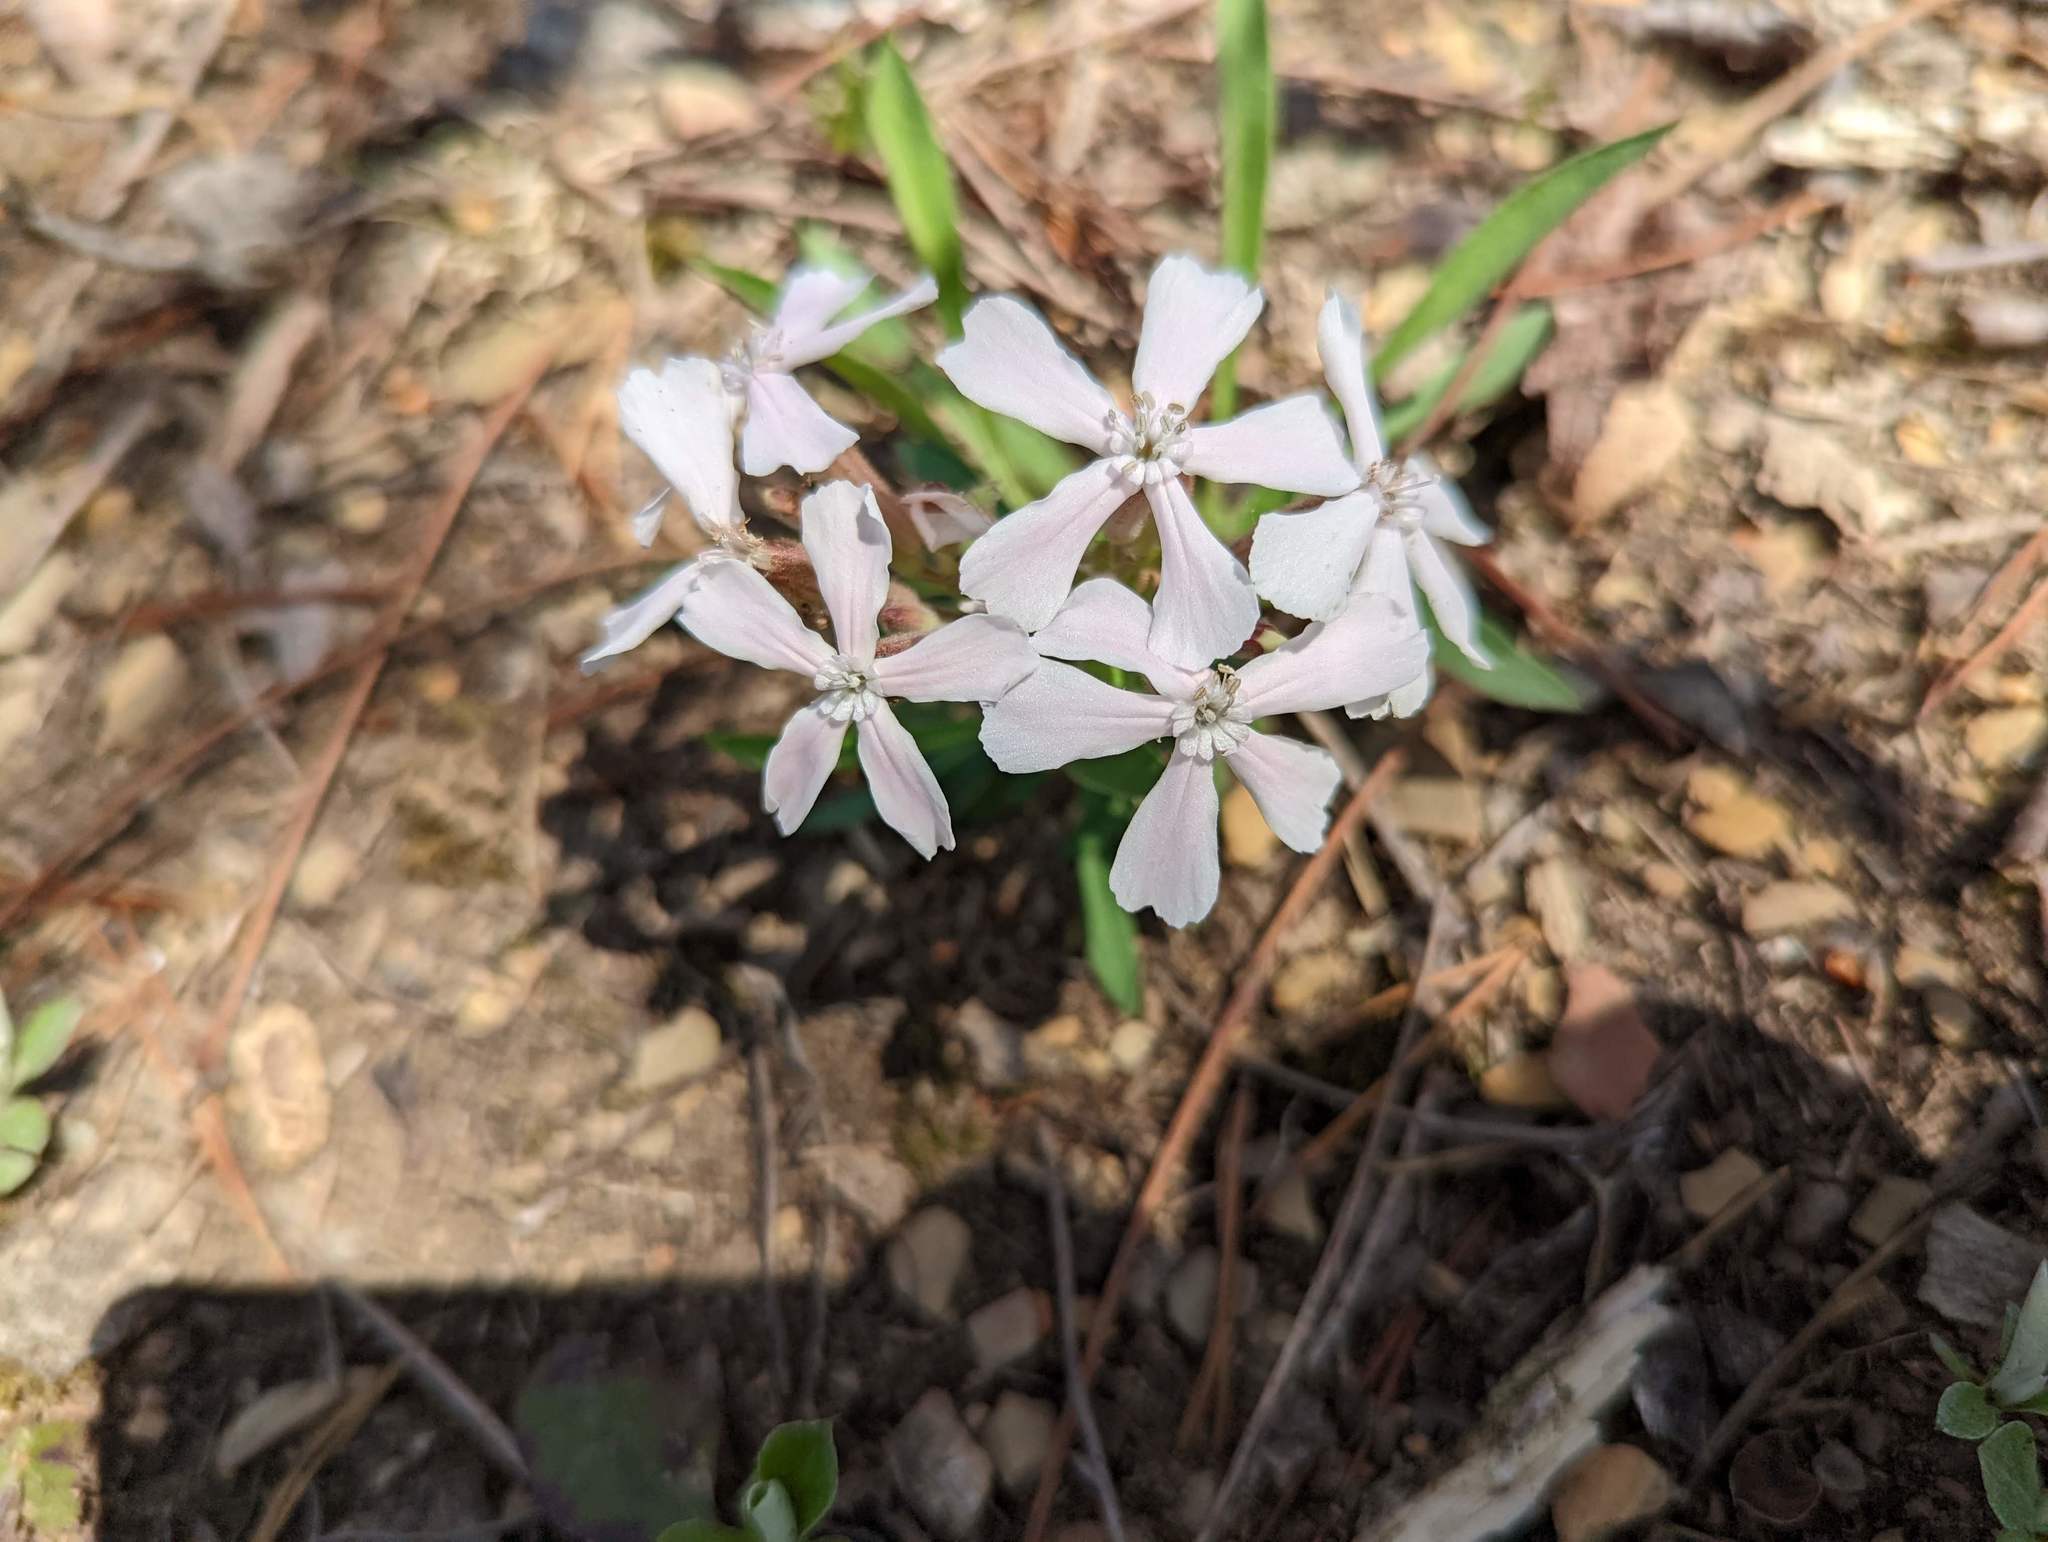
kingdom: Plantae
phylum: Tracheophyta
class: Magnoliopsida
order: Caryophyllales
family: Caryophyllaceae
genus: Silene
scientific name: Silene caroliniana
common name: Sticky catchfly
